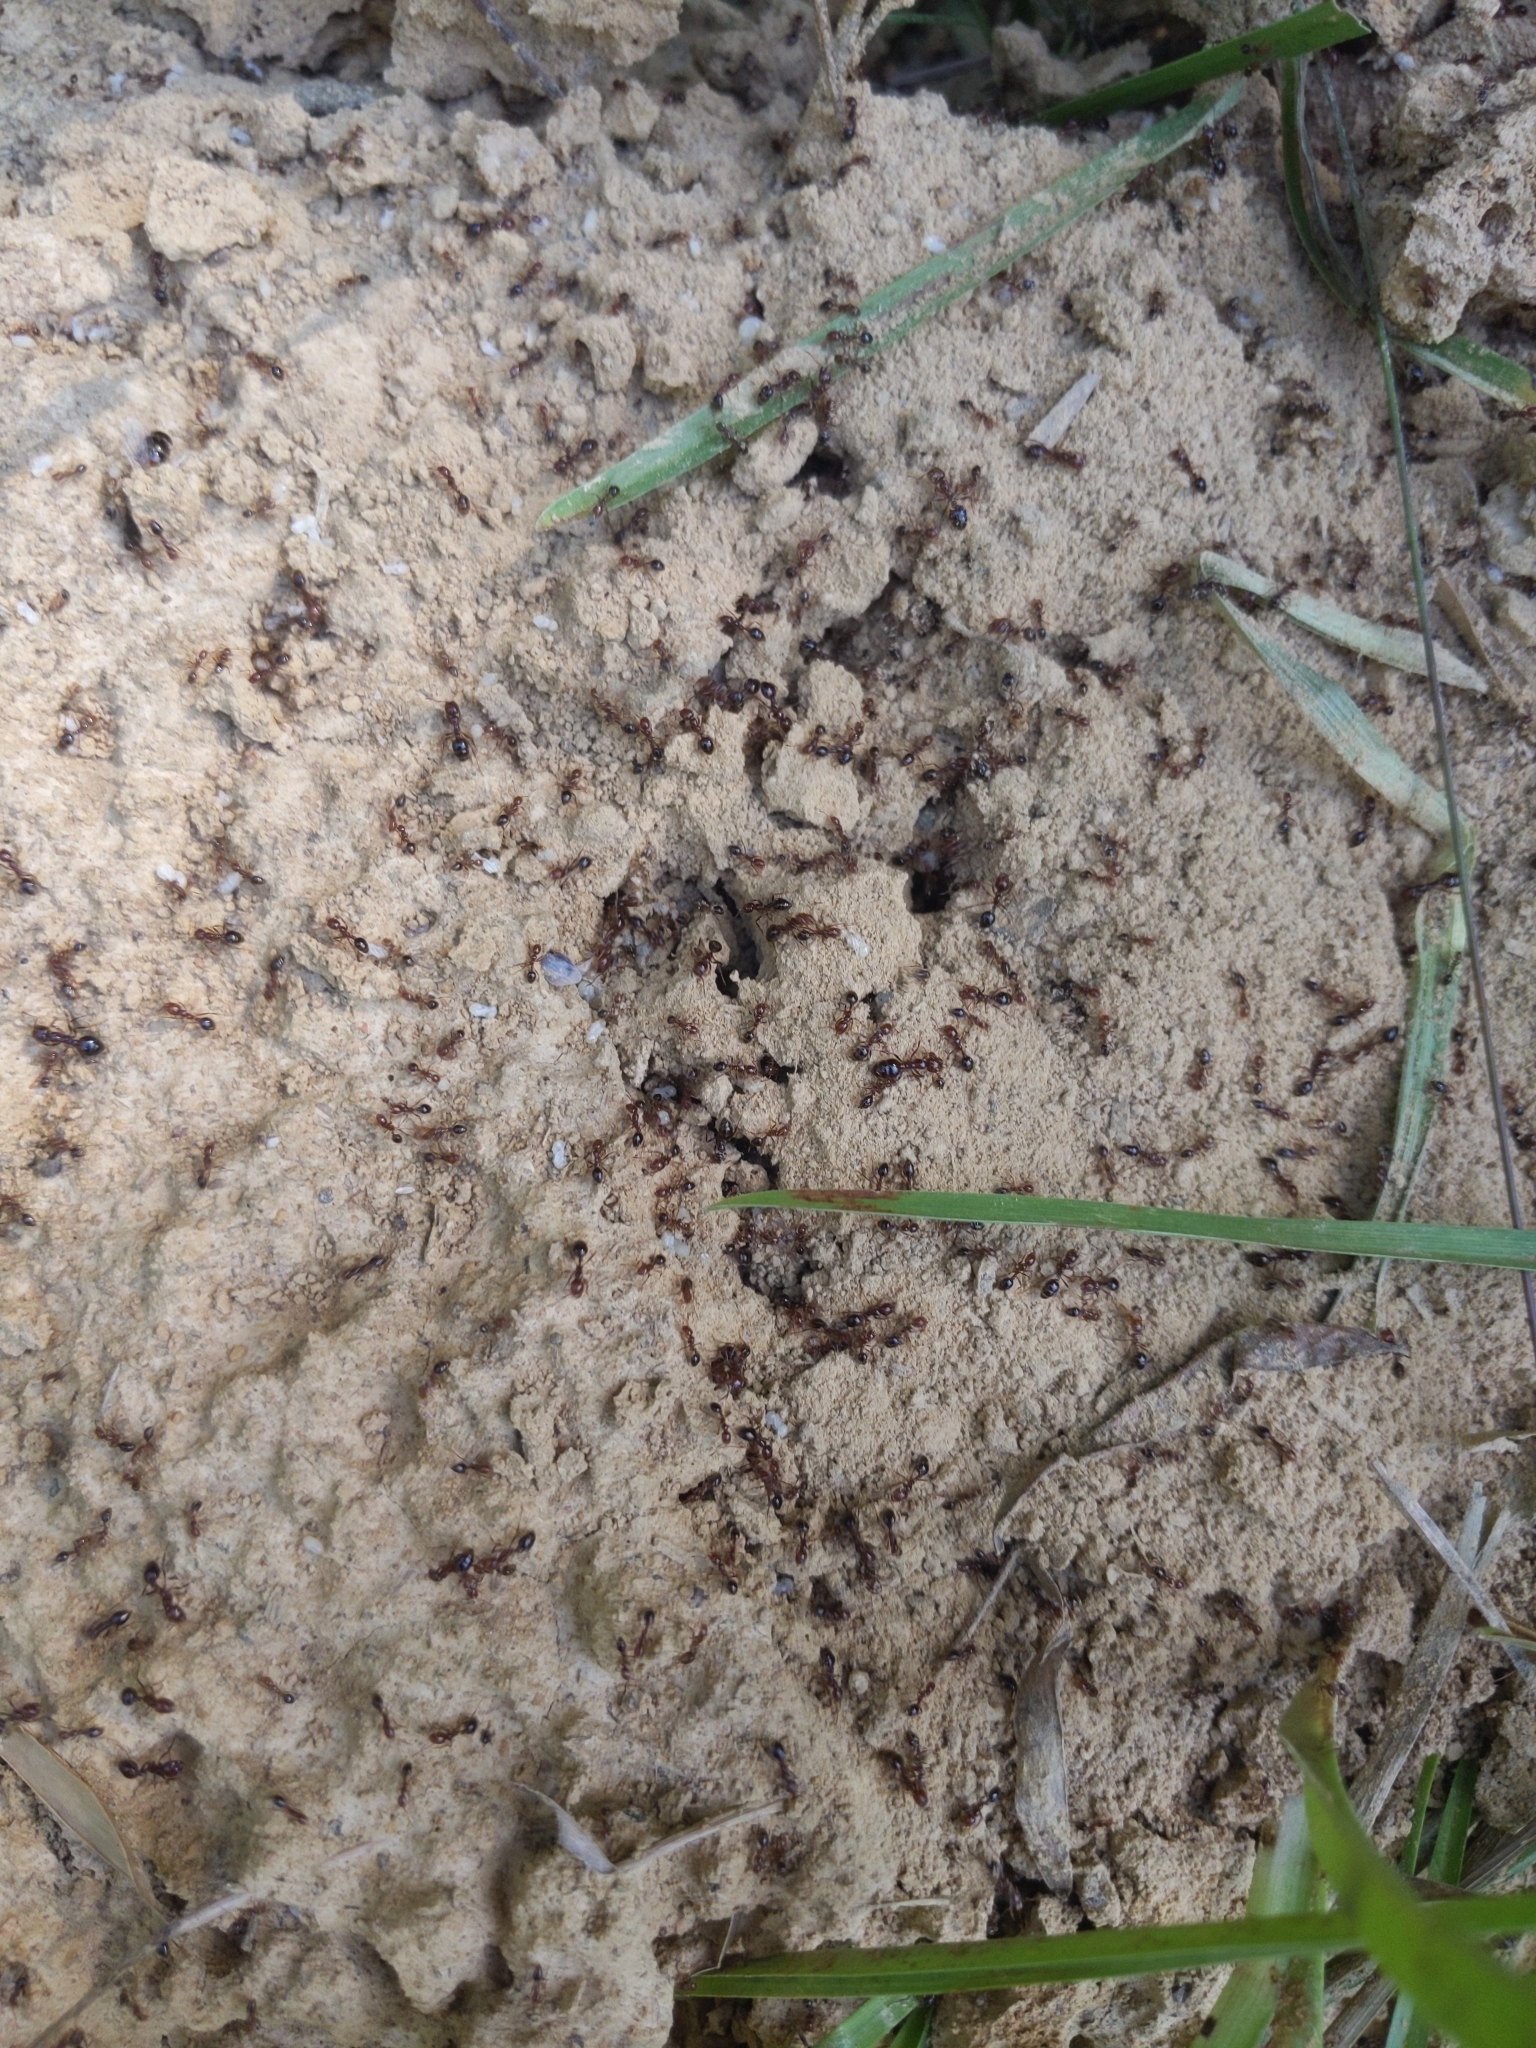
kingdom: Animalia
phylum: Arthropoda
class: Insecta
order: Hymenoptera
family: Formicidae
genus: Solenopsis
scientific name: Solenopsis invicta
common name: Red imported fire ant
